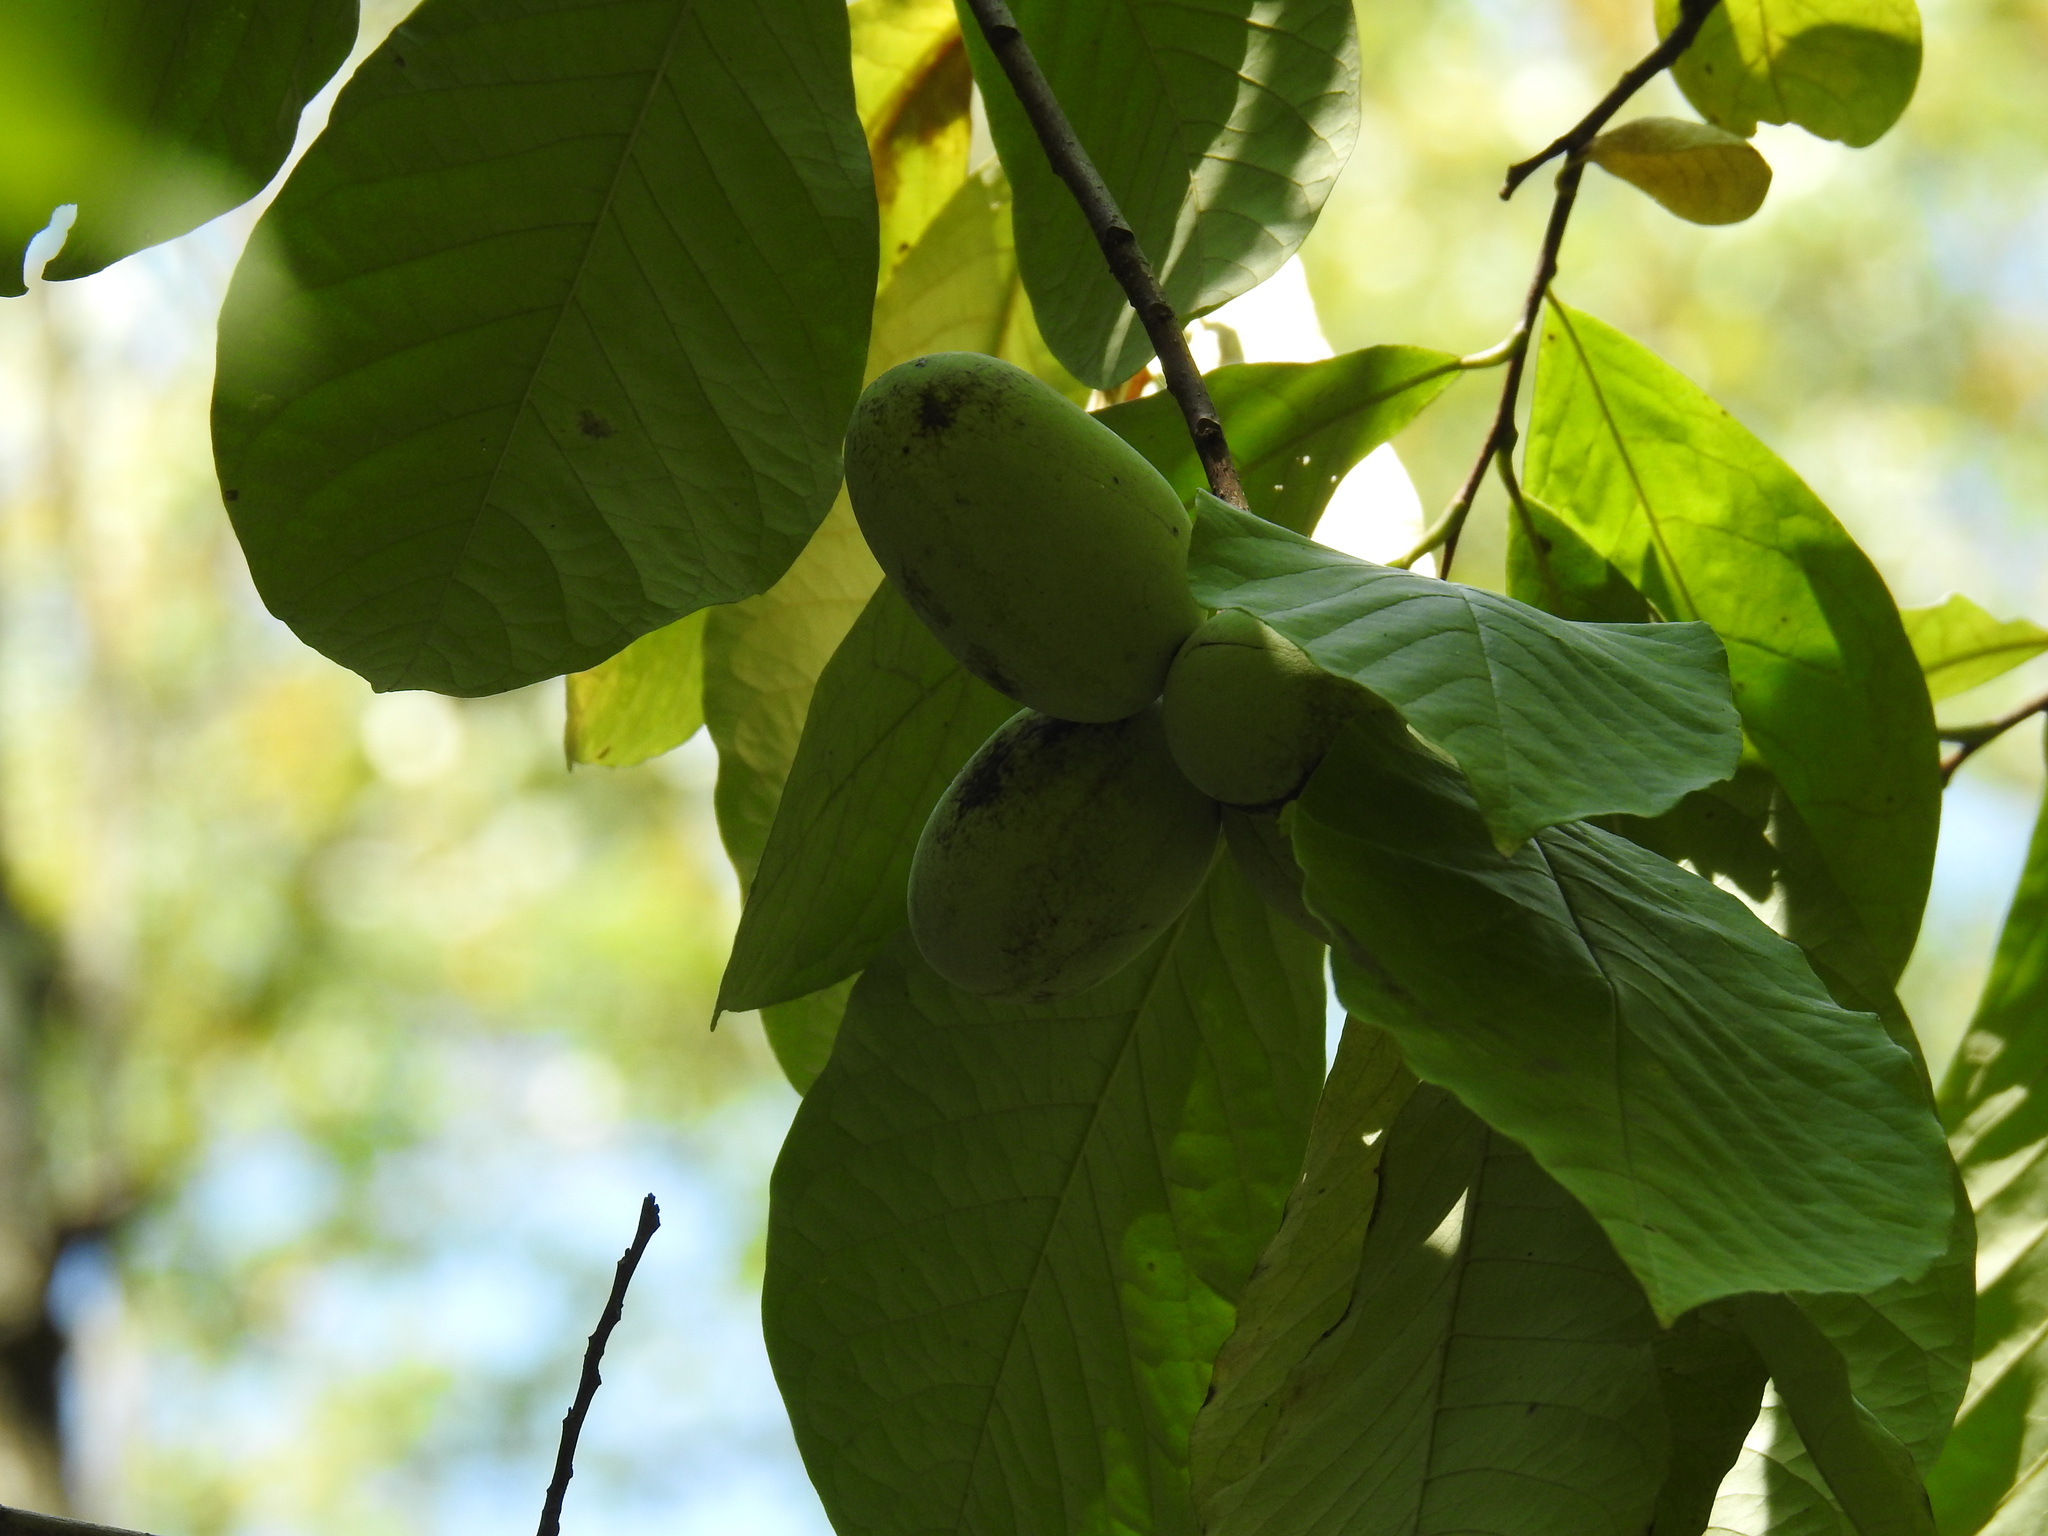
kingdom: Plantae
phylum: Tracheophyta
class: Magnoliopsida
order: Magnoliales
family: Annonaceae
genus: Asimina
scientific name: Asimina triloba
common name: Dog-banana
